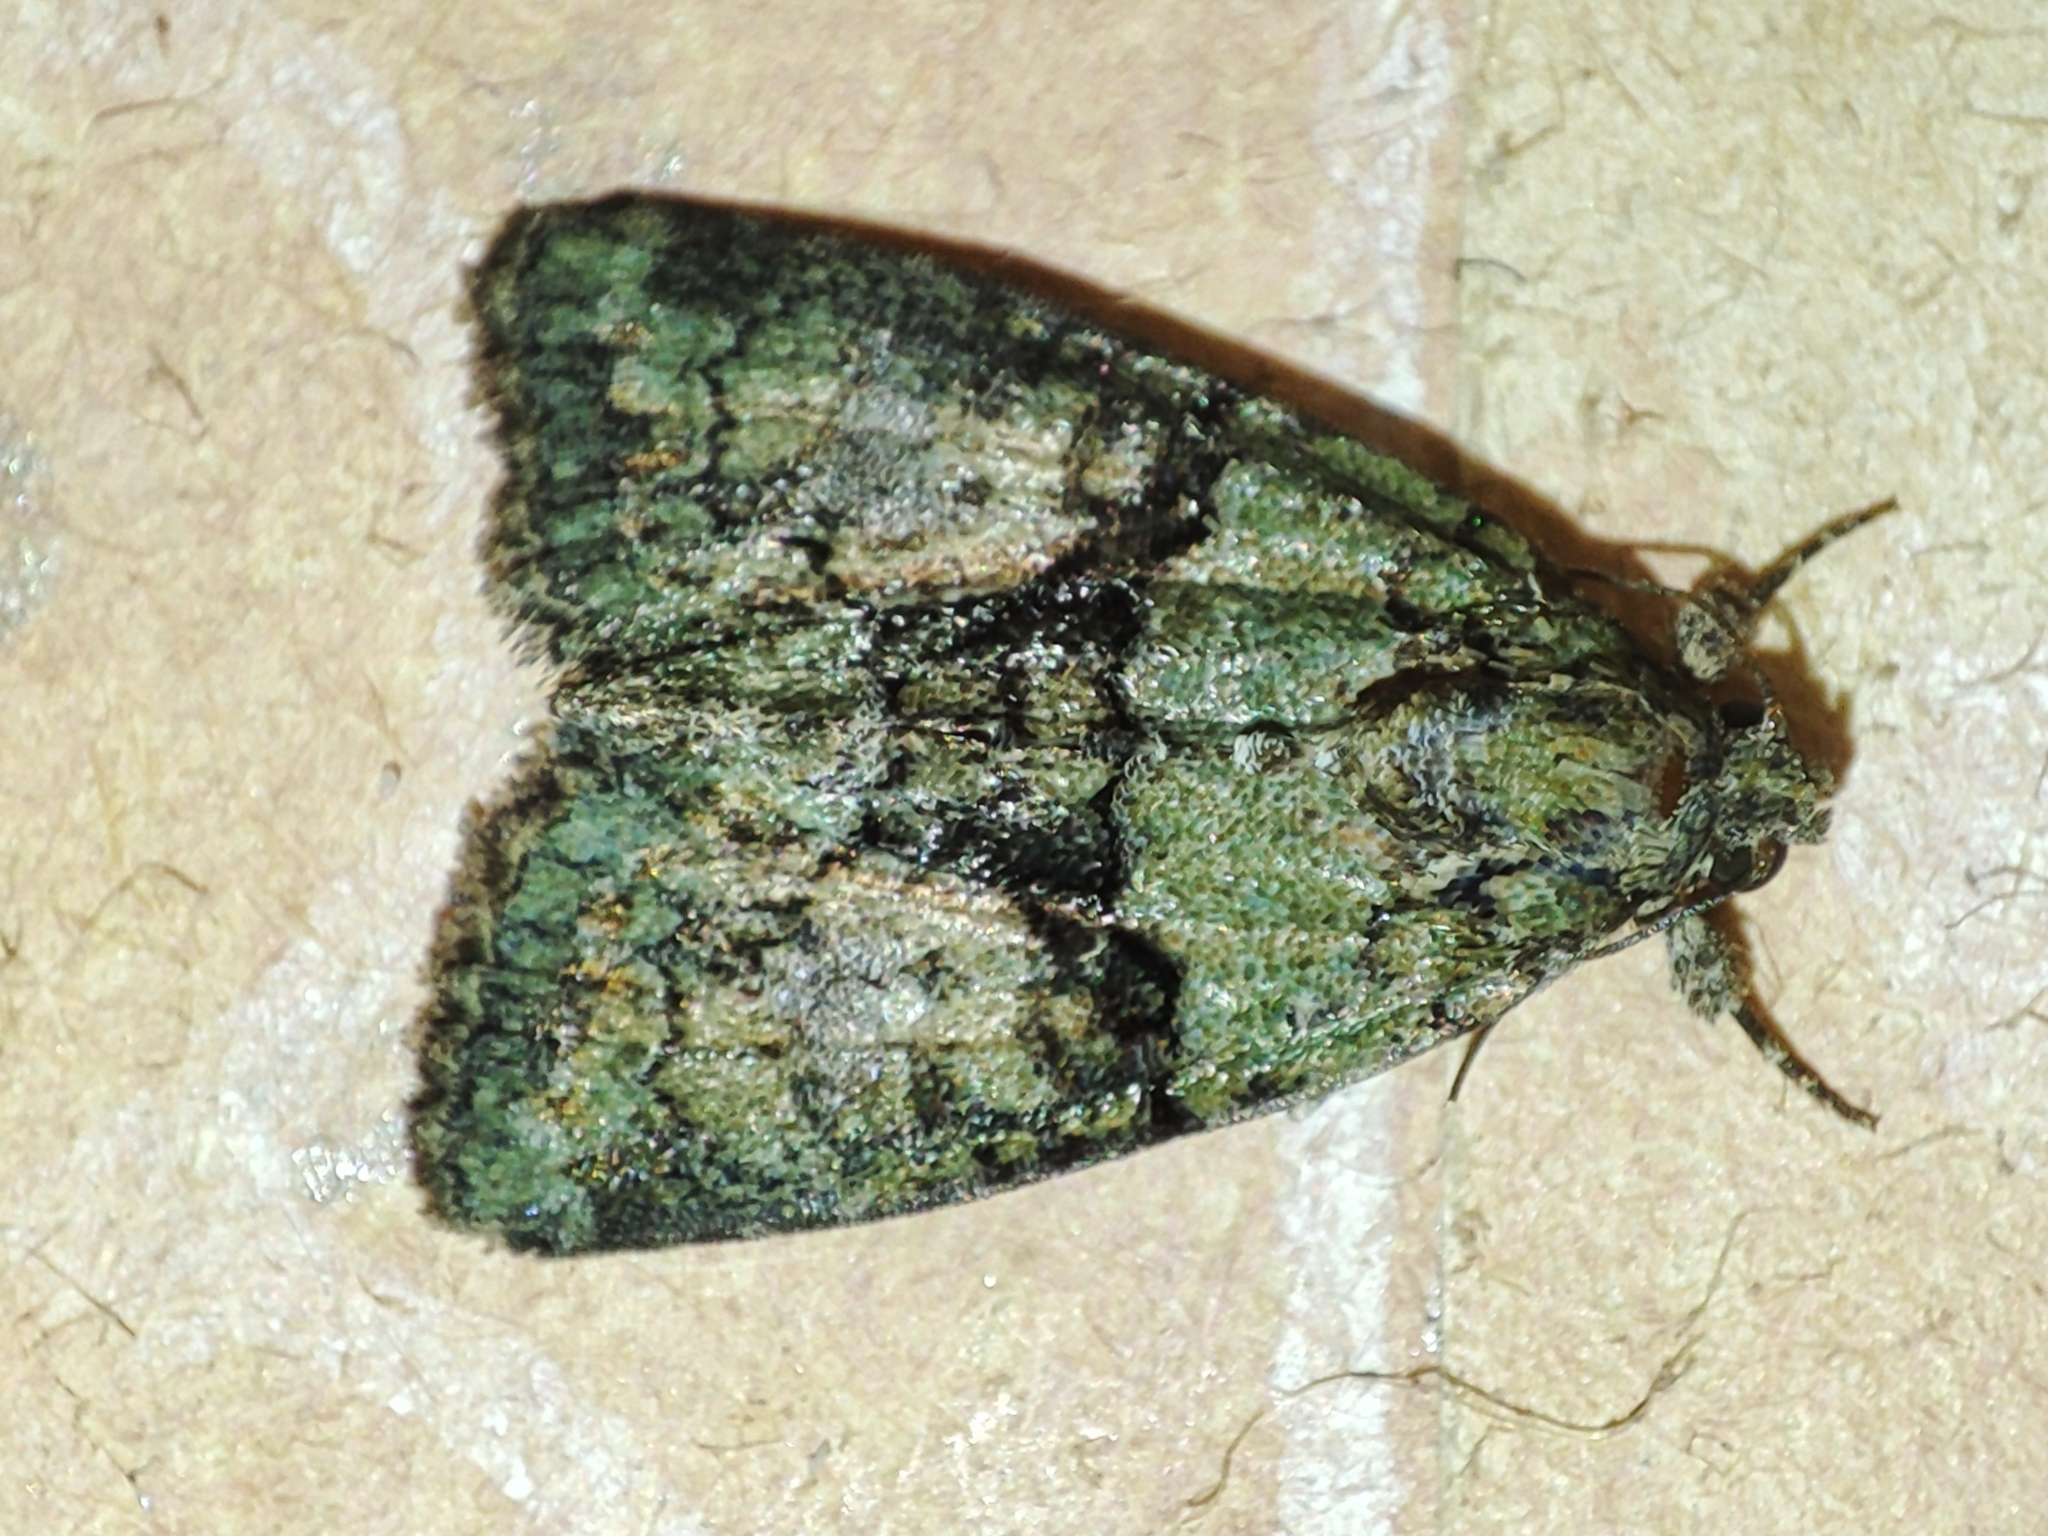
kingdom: Animalia
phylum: Arthropoda
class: Insecta
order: Lepidoptera
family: Noctuidae
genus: Cryphia
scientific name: Cryphia algae
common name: Tree-lichen beauty
